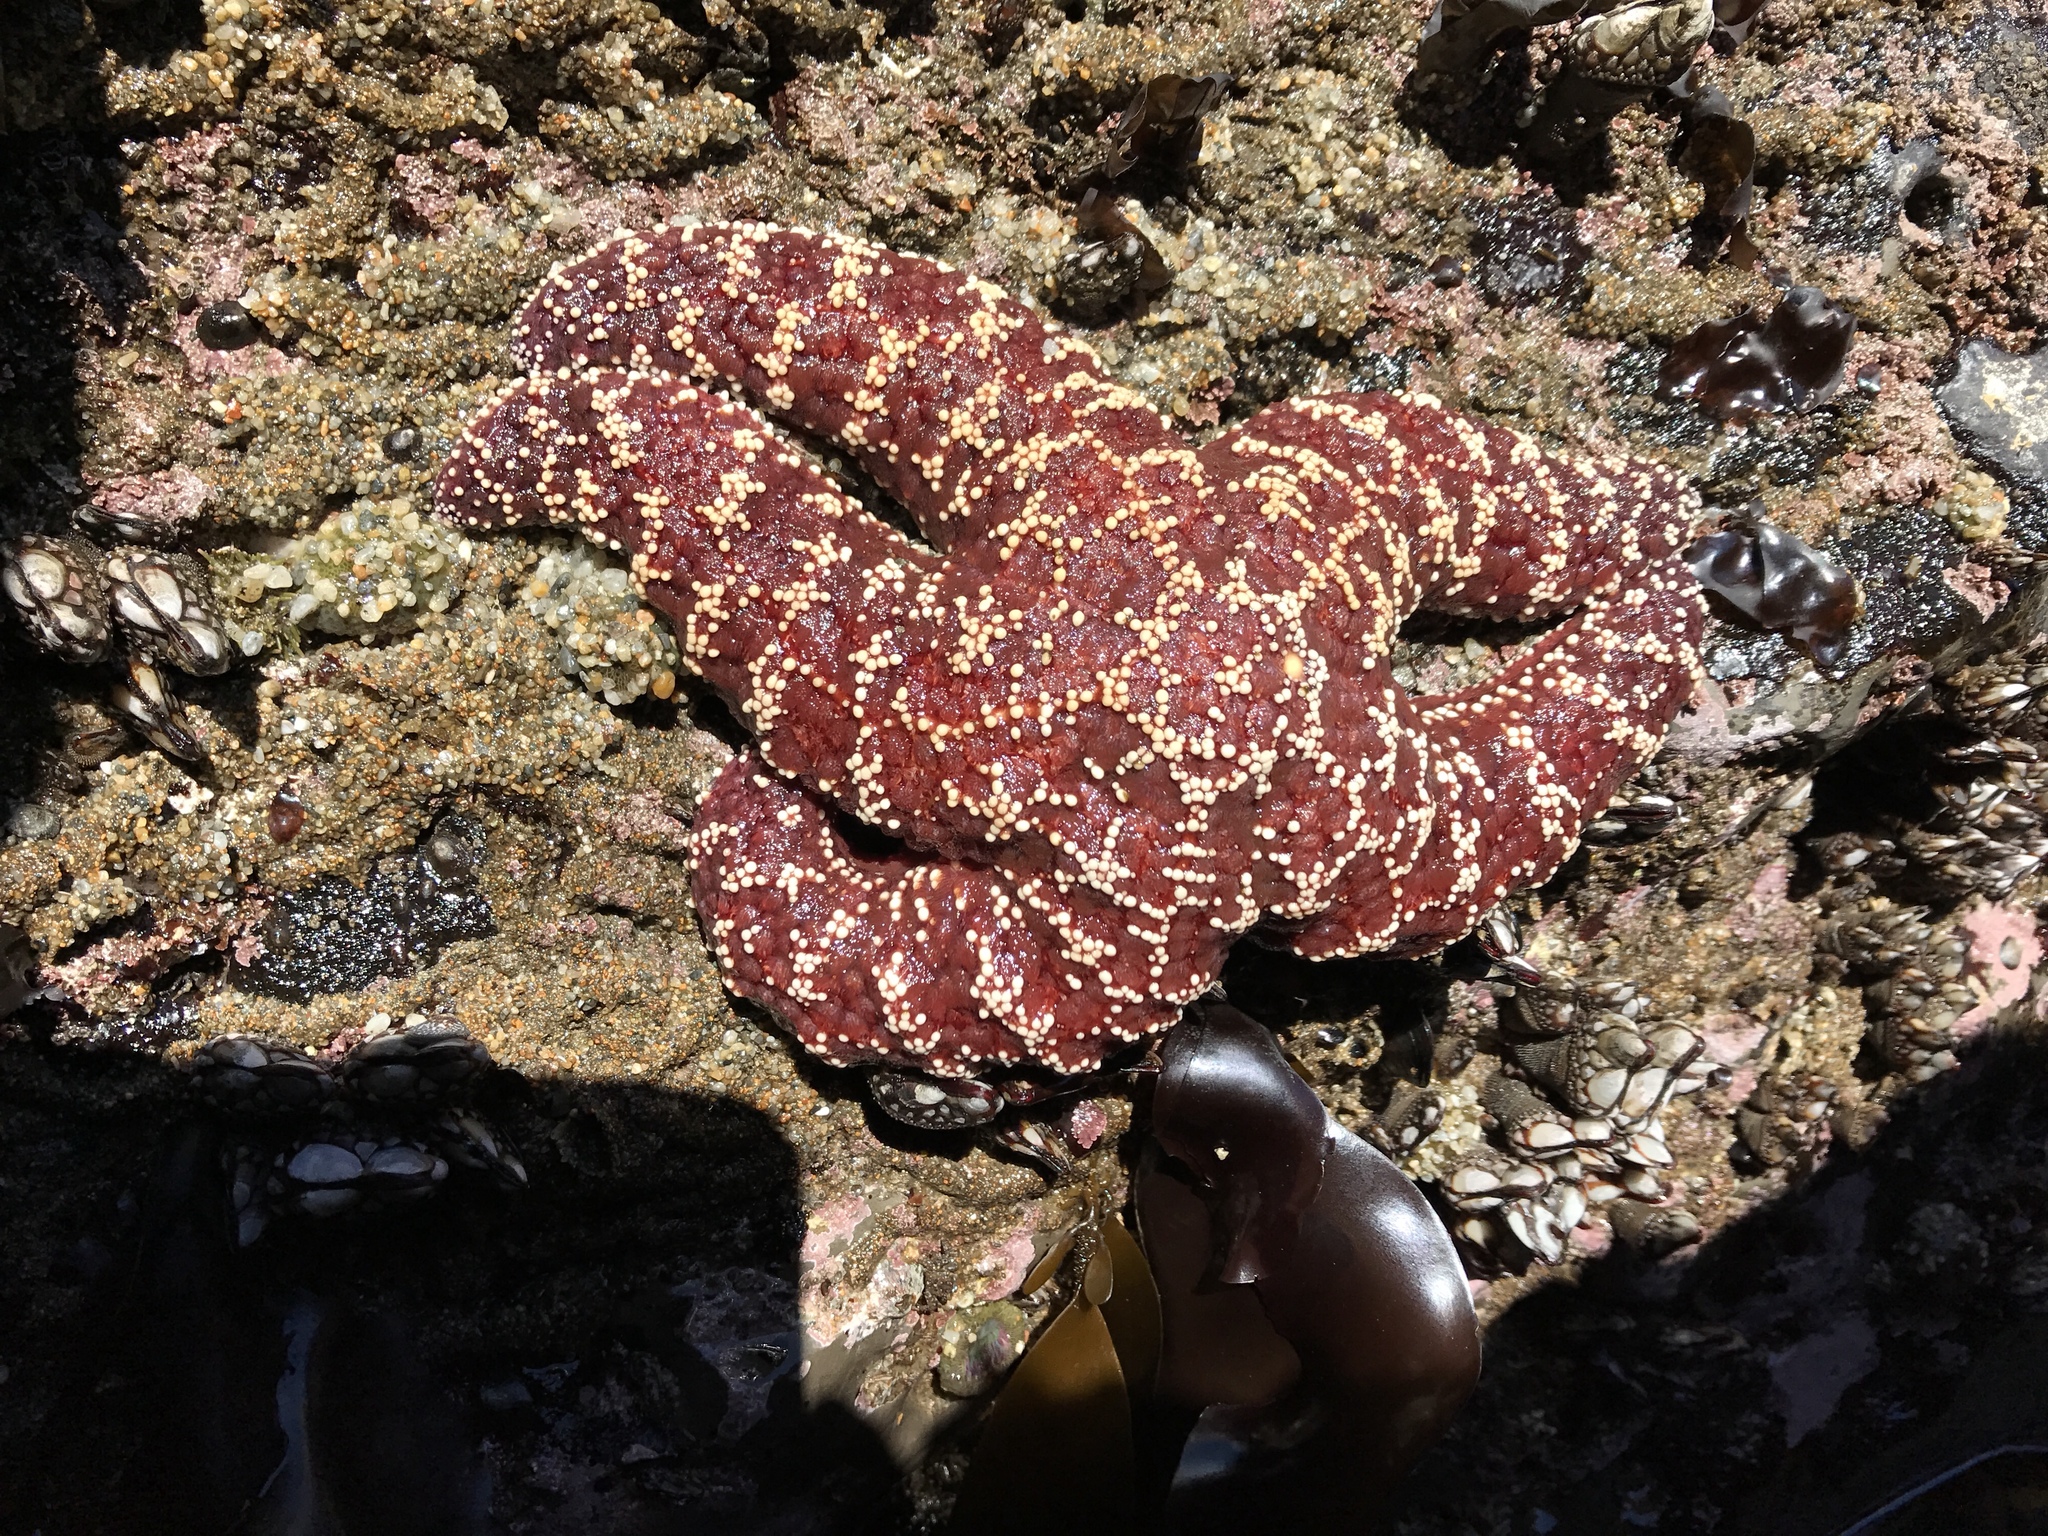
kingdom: Animalia
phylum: Echinodermata
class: Asteroidea
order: Forcipulatida
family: Asteriidae
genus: Pisaster
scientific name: Pisaster ochraceus
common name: Ochre stars
